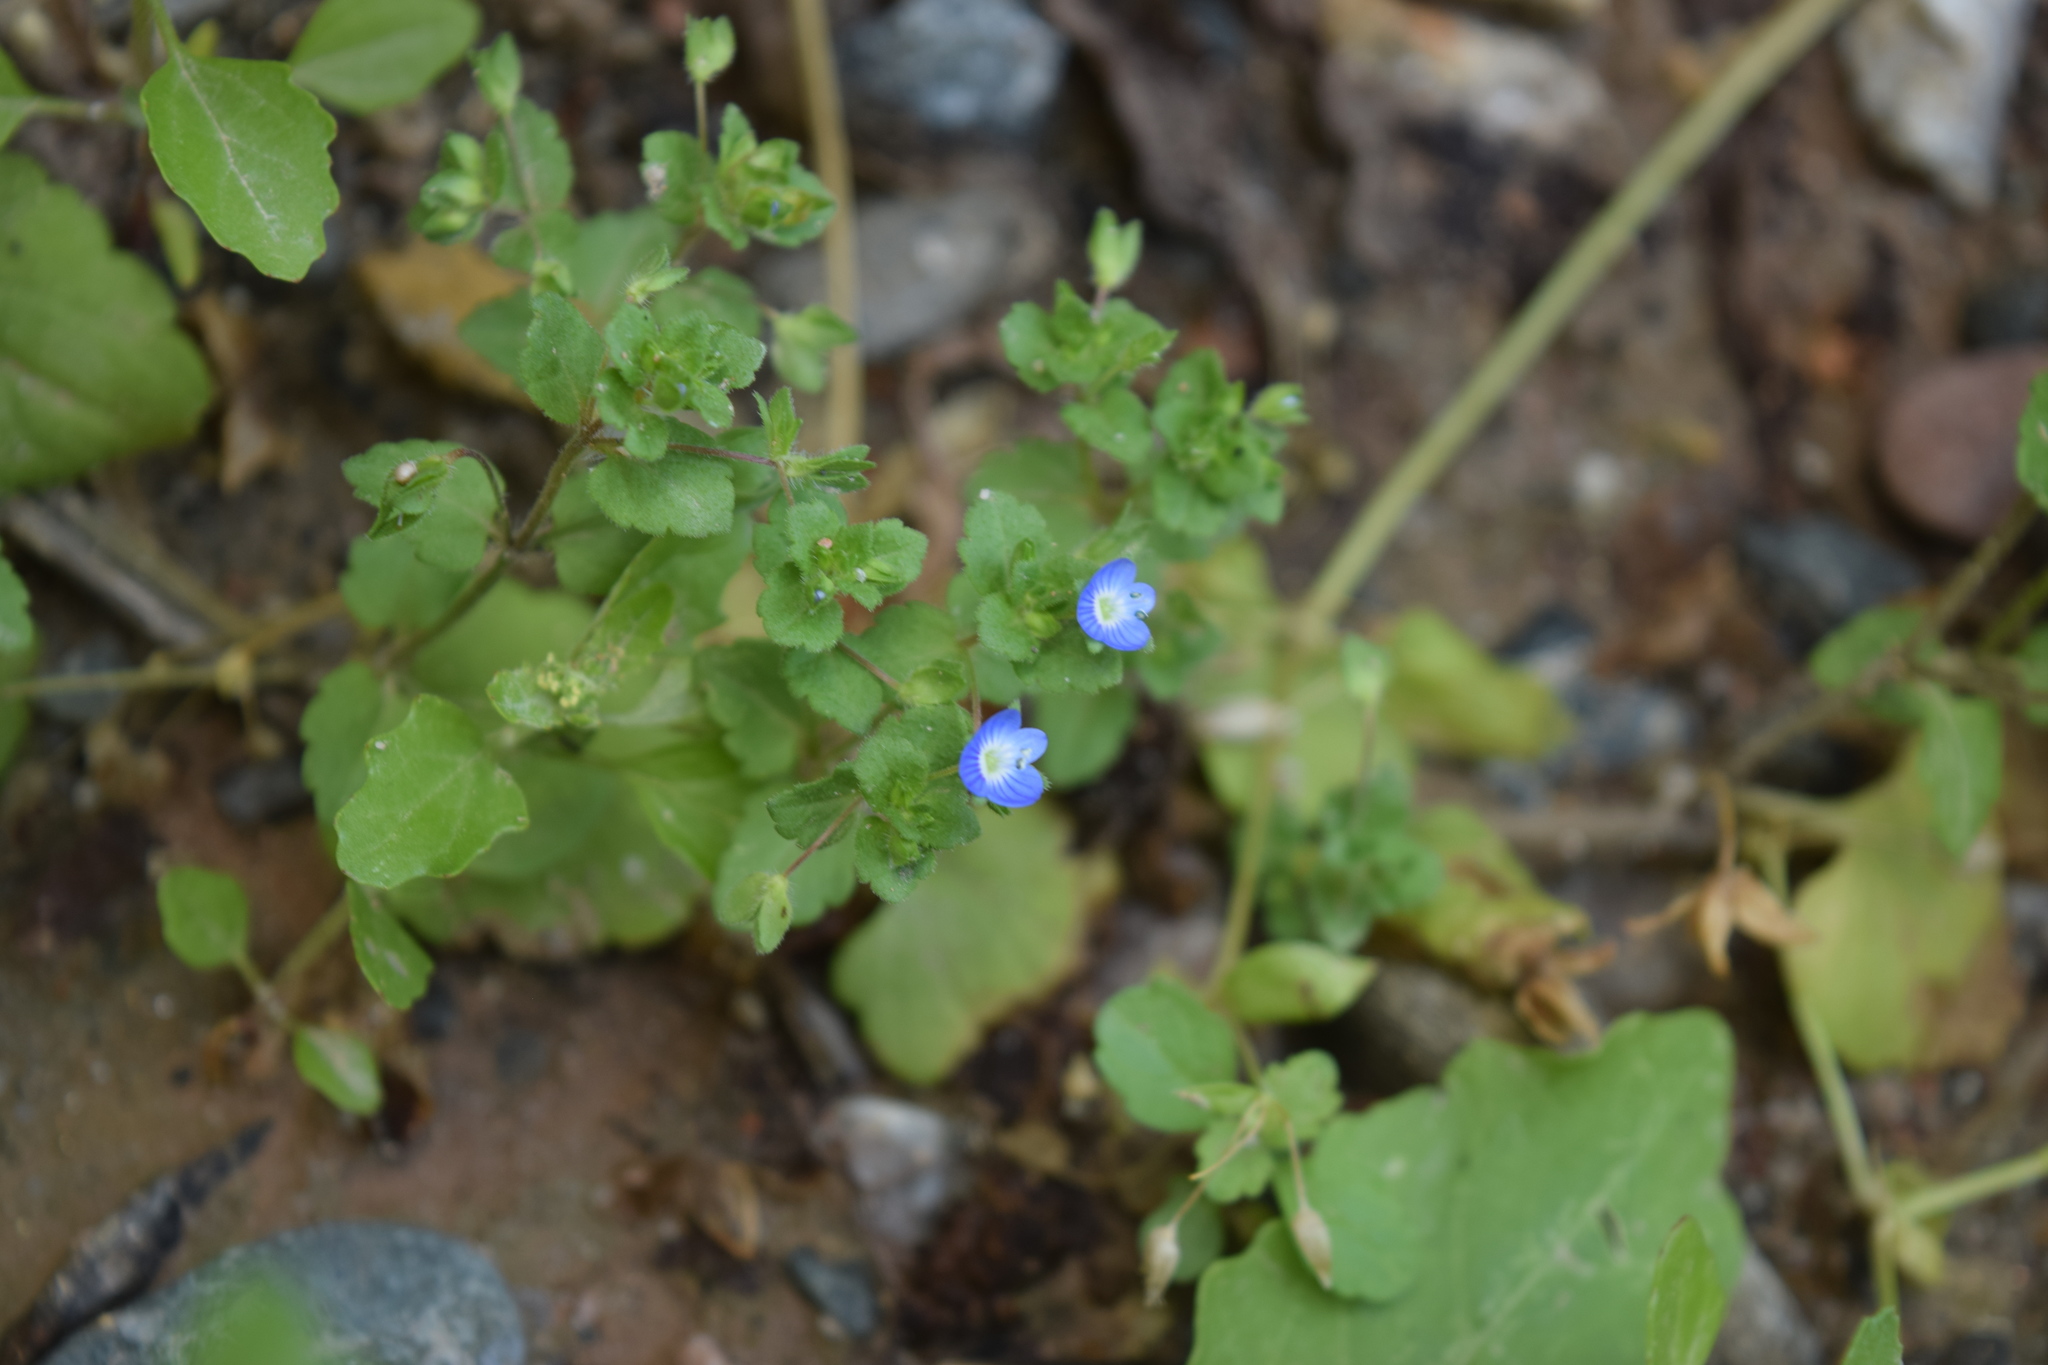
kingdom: Plantae
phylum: Tracheophyta
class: Magnoliopsida
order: Lamiales
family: Plantaginaceae
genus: Veronica
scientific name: Veronica persica
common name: Common field-speedwell
